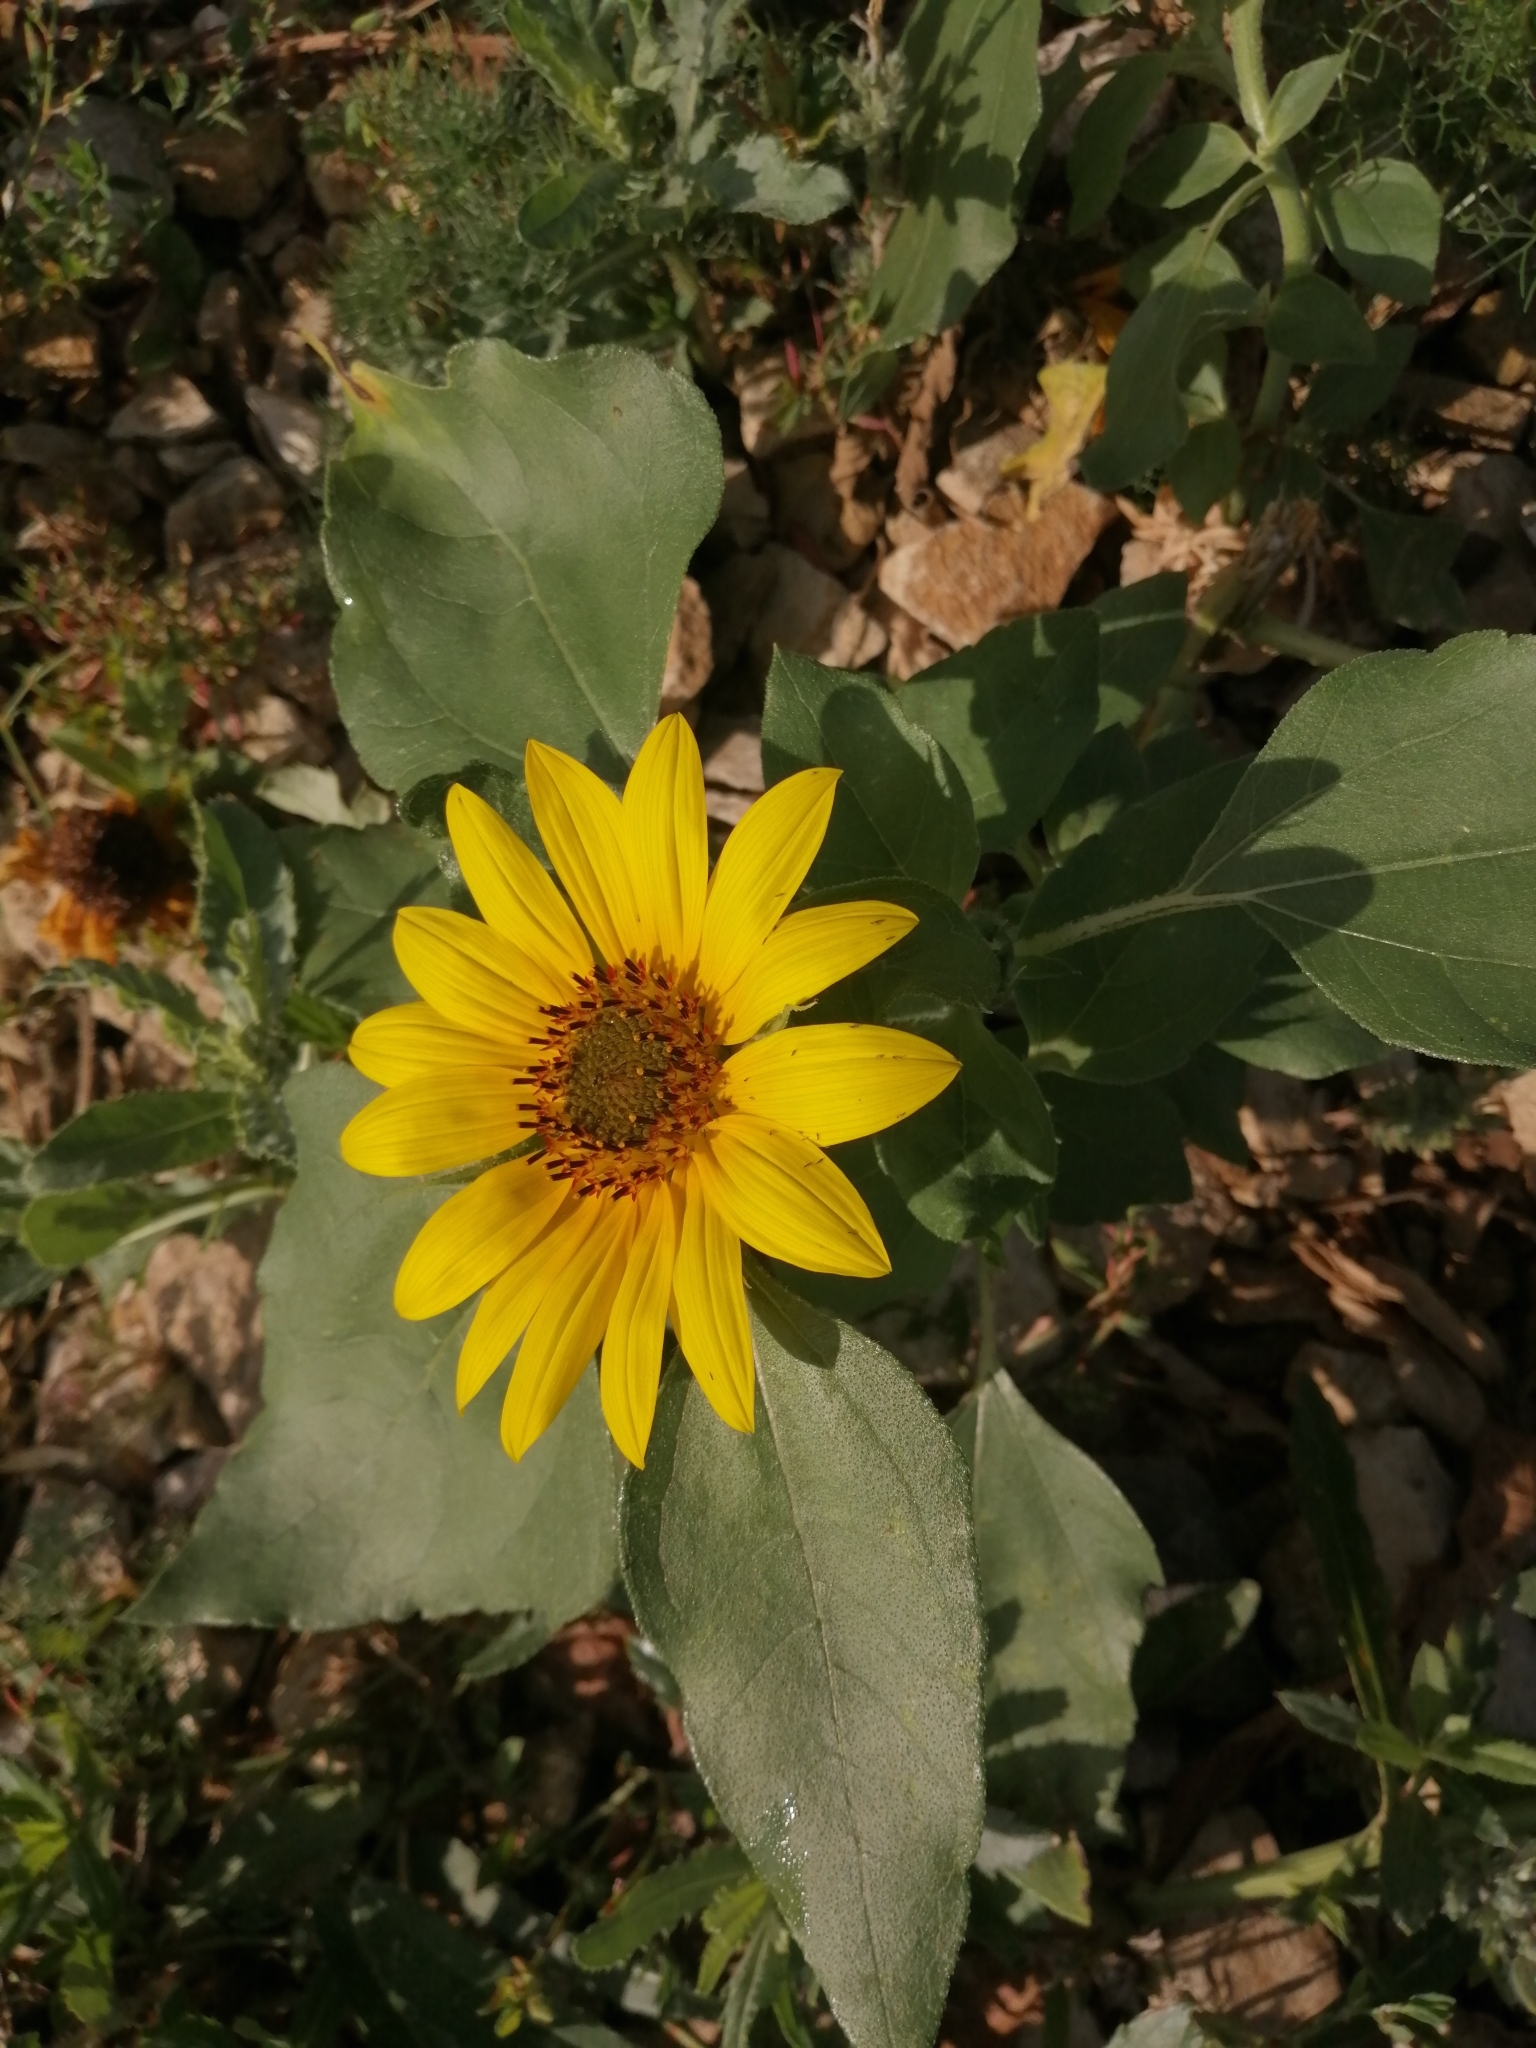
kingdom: Plantae
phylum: Tracheophyta
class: Magnoliopsida
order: Asterales
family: Asteraceae
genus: Helianthus
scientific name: Helianthus annuus
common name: Sunflower
